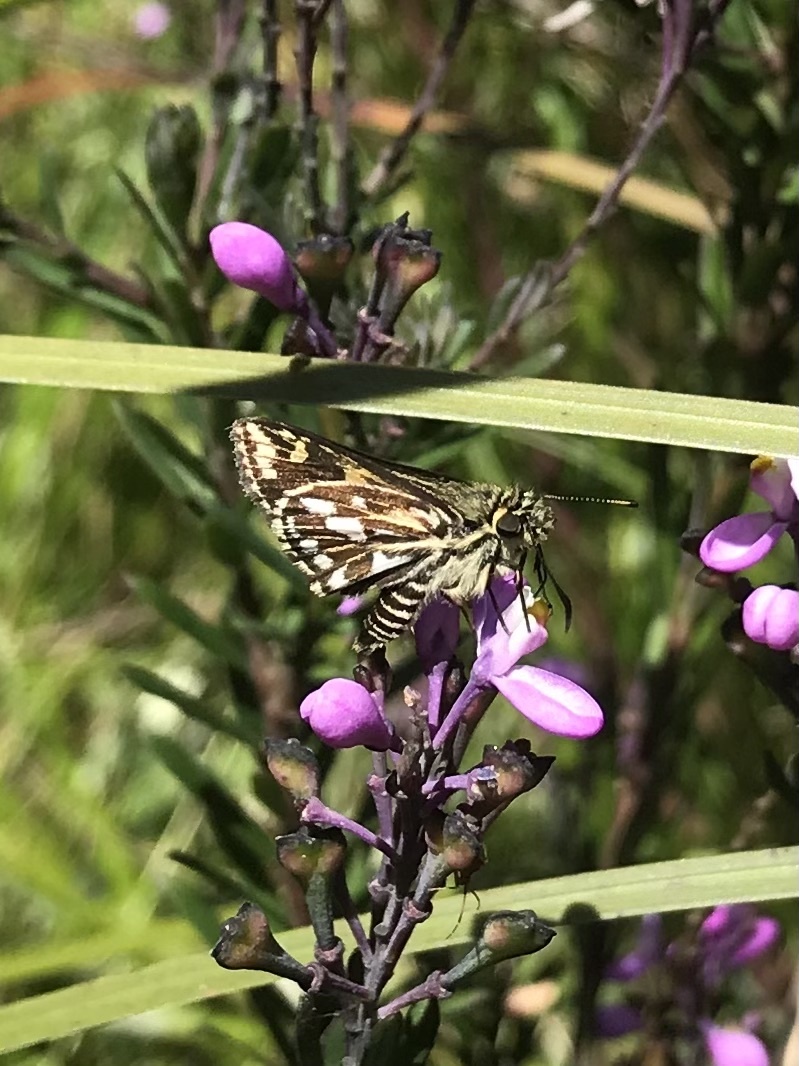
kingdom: Animalia
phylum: Arthropoda
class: Insecta
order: Lepidoptera
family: Hesperiidae
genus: Hesperilla
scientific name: Hesperilla crypsargyra
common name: Silver sedge-skipper
